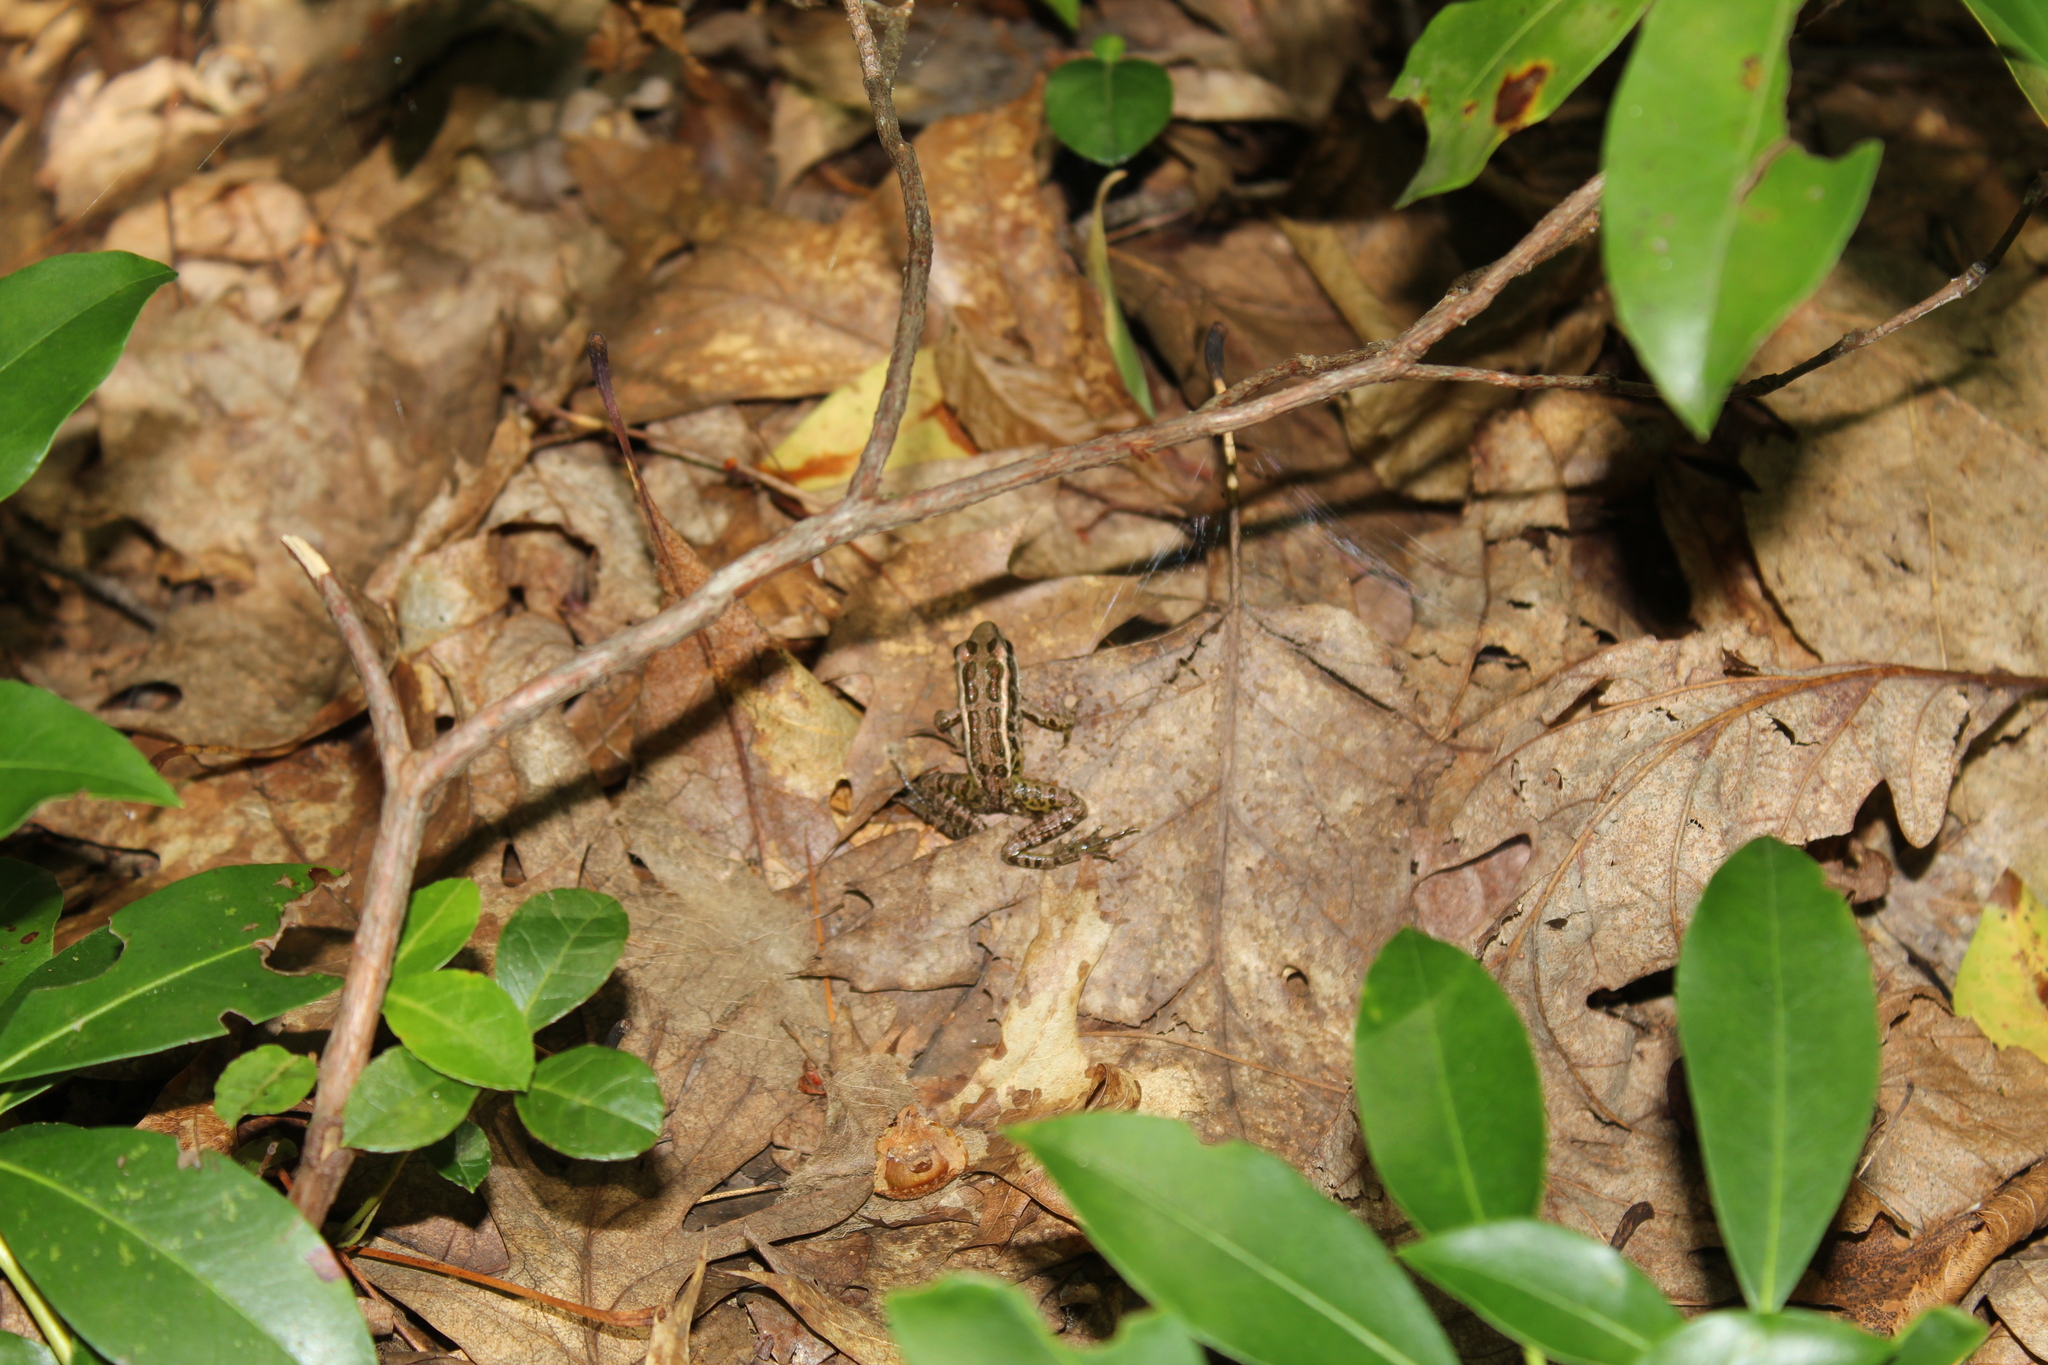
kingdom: Animalia
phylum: Chordata
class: Amphibia
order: Anura
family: Ranidae
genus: Lithobates
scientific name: Lithobates palustris
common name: Pickerel frog
